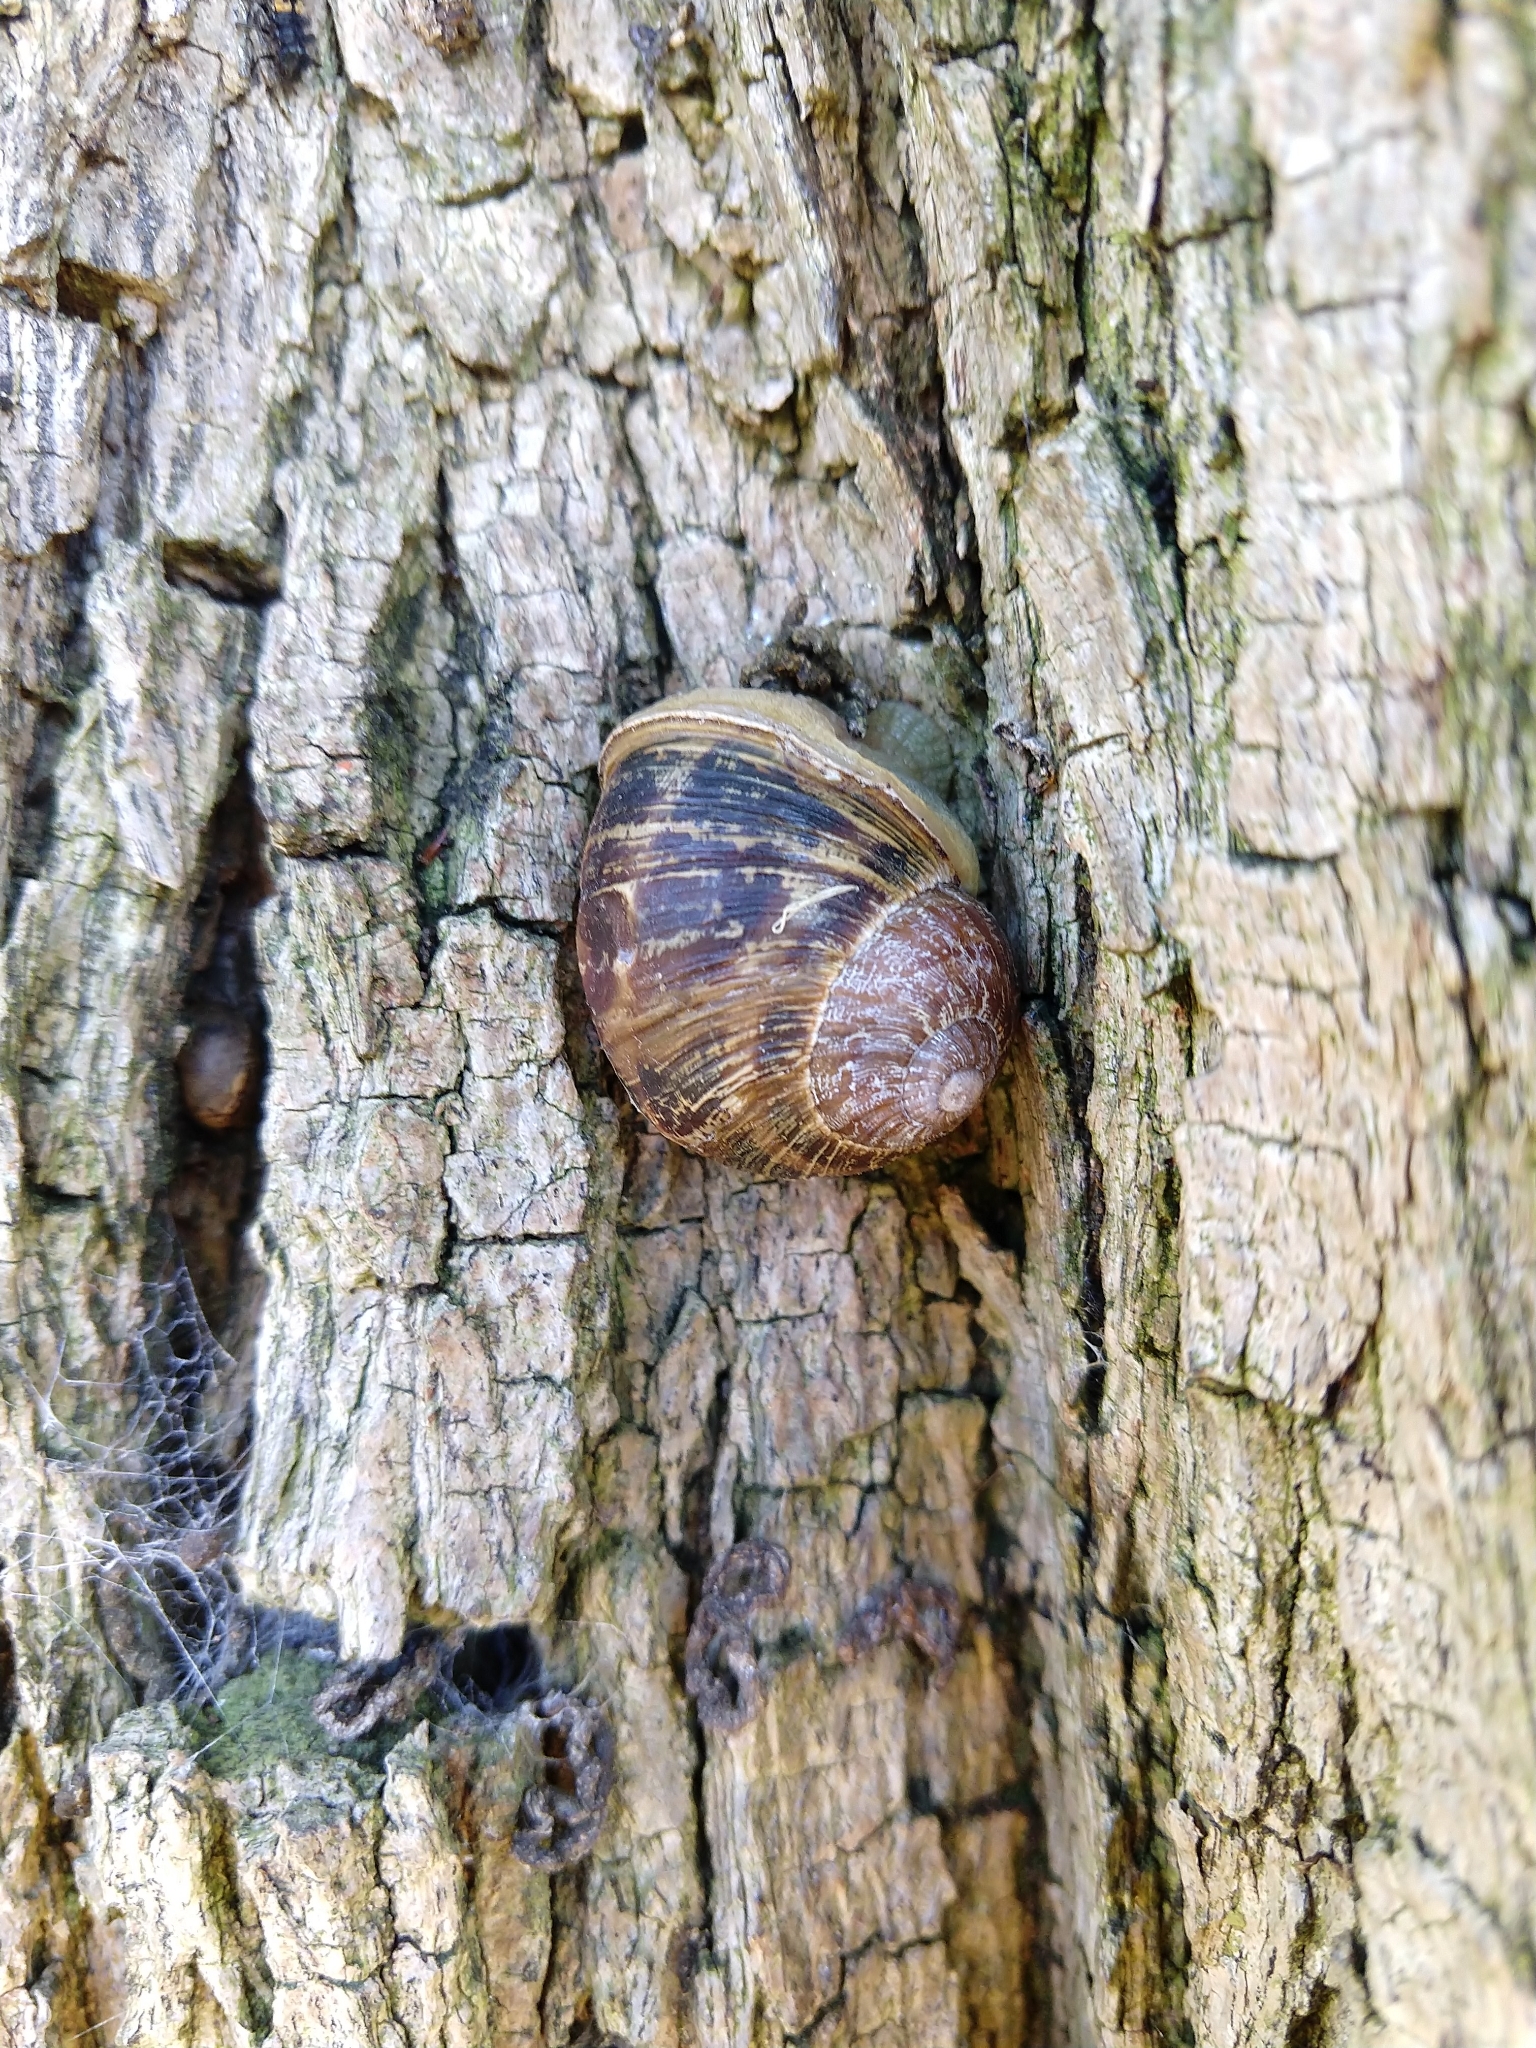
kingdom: Animalia
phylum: Mollusca
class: Gastropoda
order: Stylommatophora
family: Helicidae
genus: Cornu
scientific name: Cornu aspersum
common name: Brown garden snail
